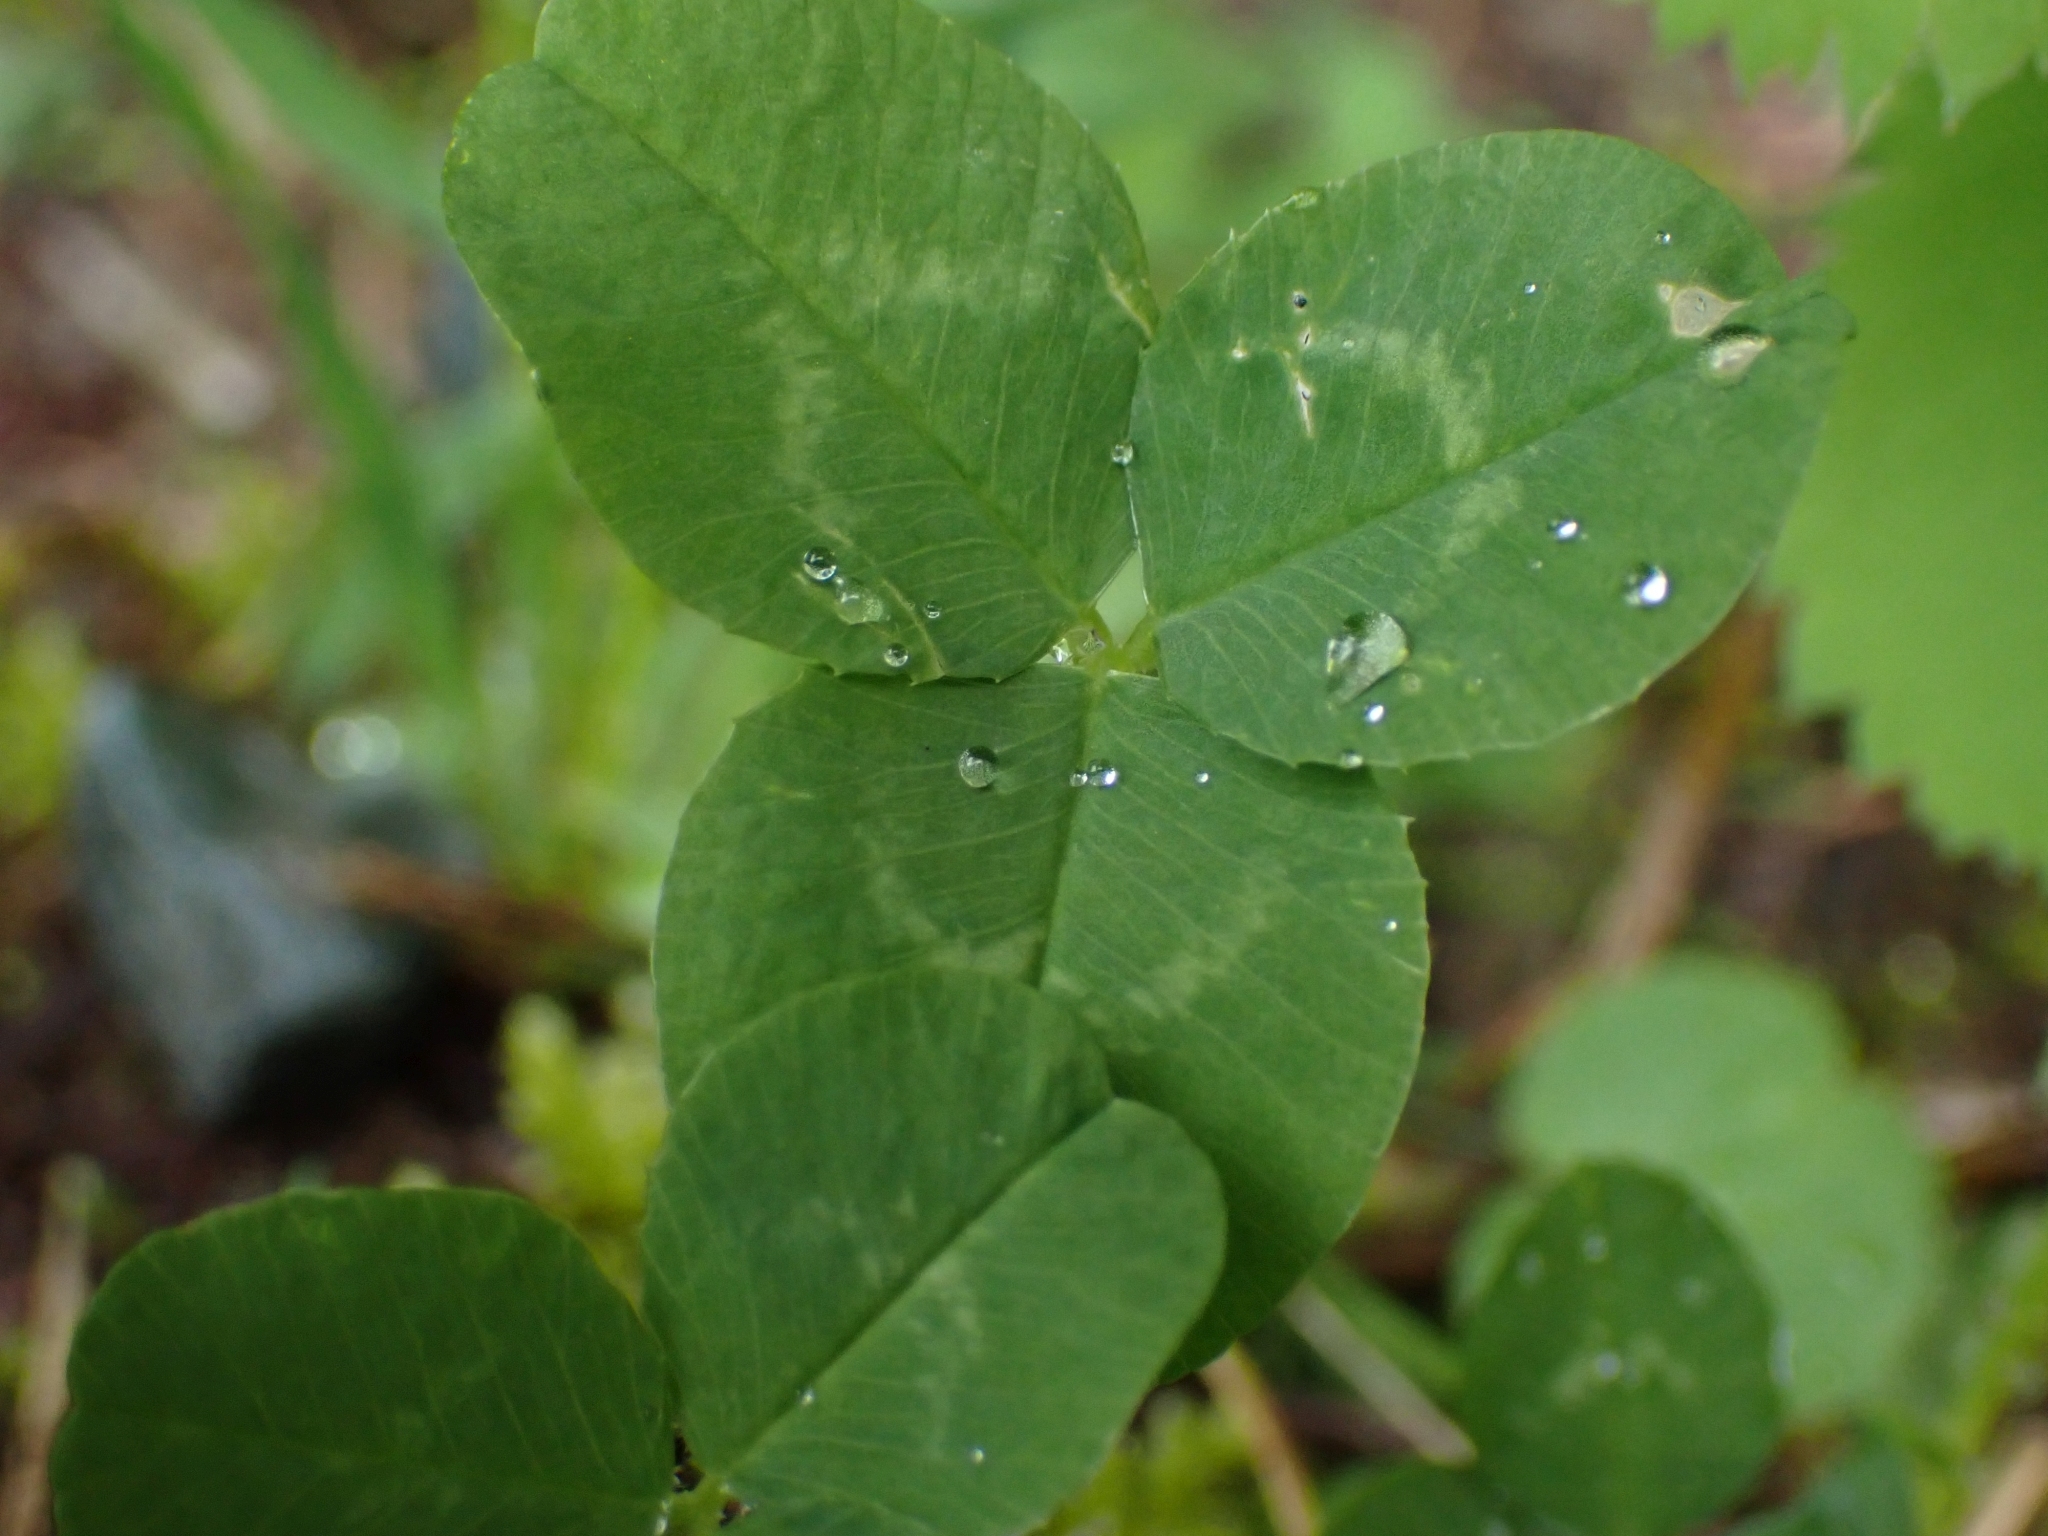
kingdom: Plantae
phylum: Tracheophyta
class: Magnoliopsida
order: Fabales
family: Fabaceae
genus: Trifolium
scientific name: Trifolium repens
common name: White clover
